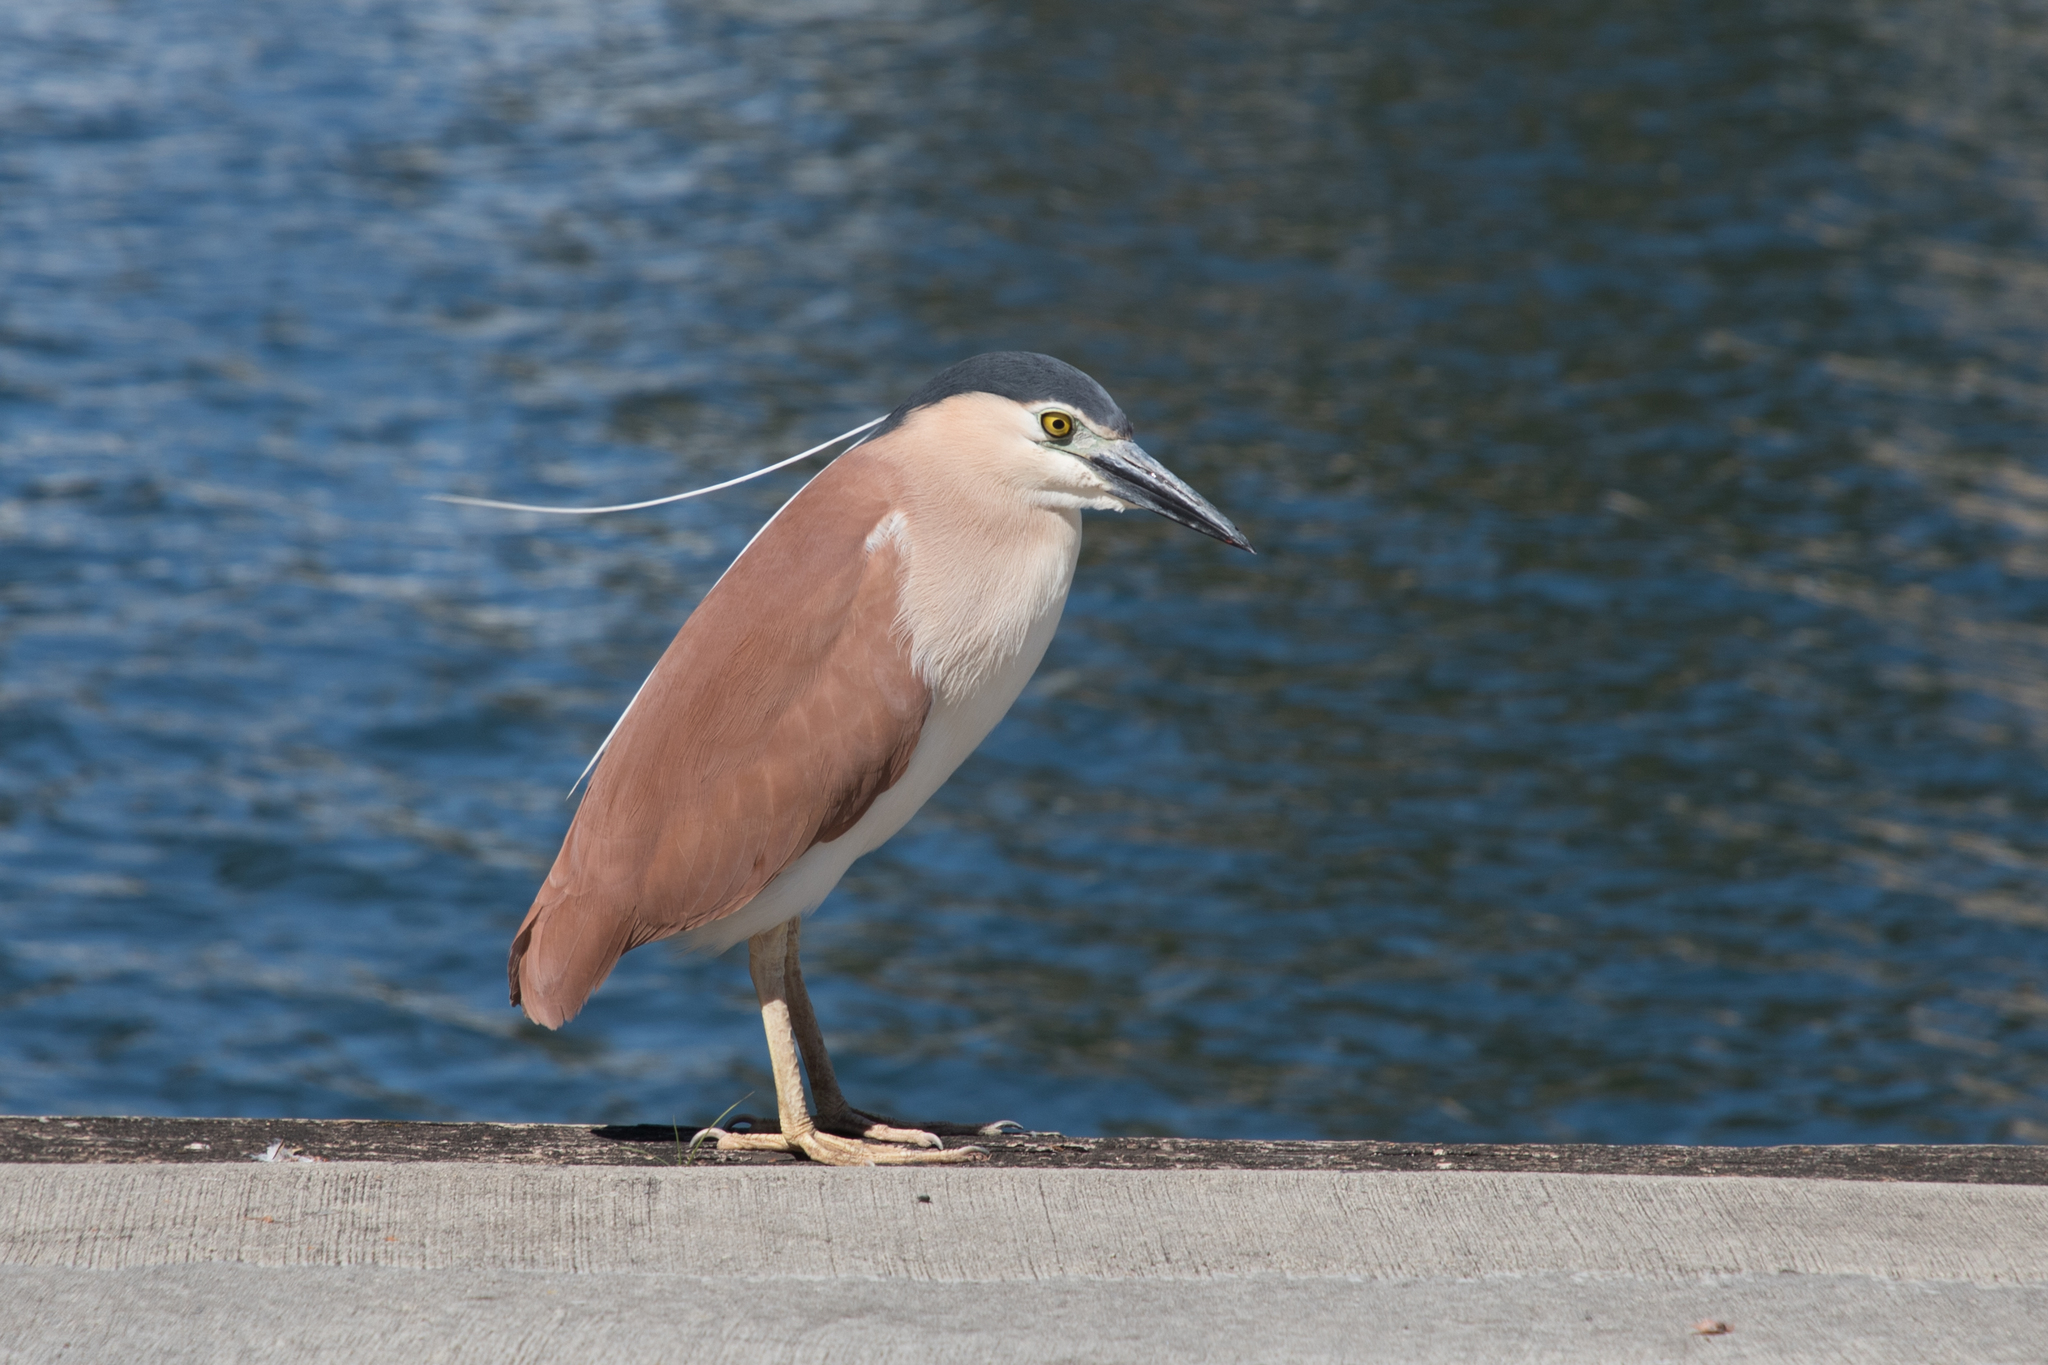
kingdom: Animalia
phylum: Chordata
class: Aves
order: Pelecaniformes
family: Ardeidae
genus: Nycticorax
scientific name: Nycticorax caledonicus
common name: Rufous night-heron
